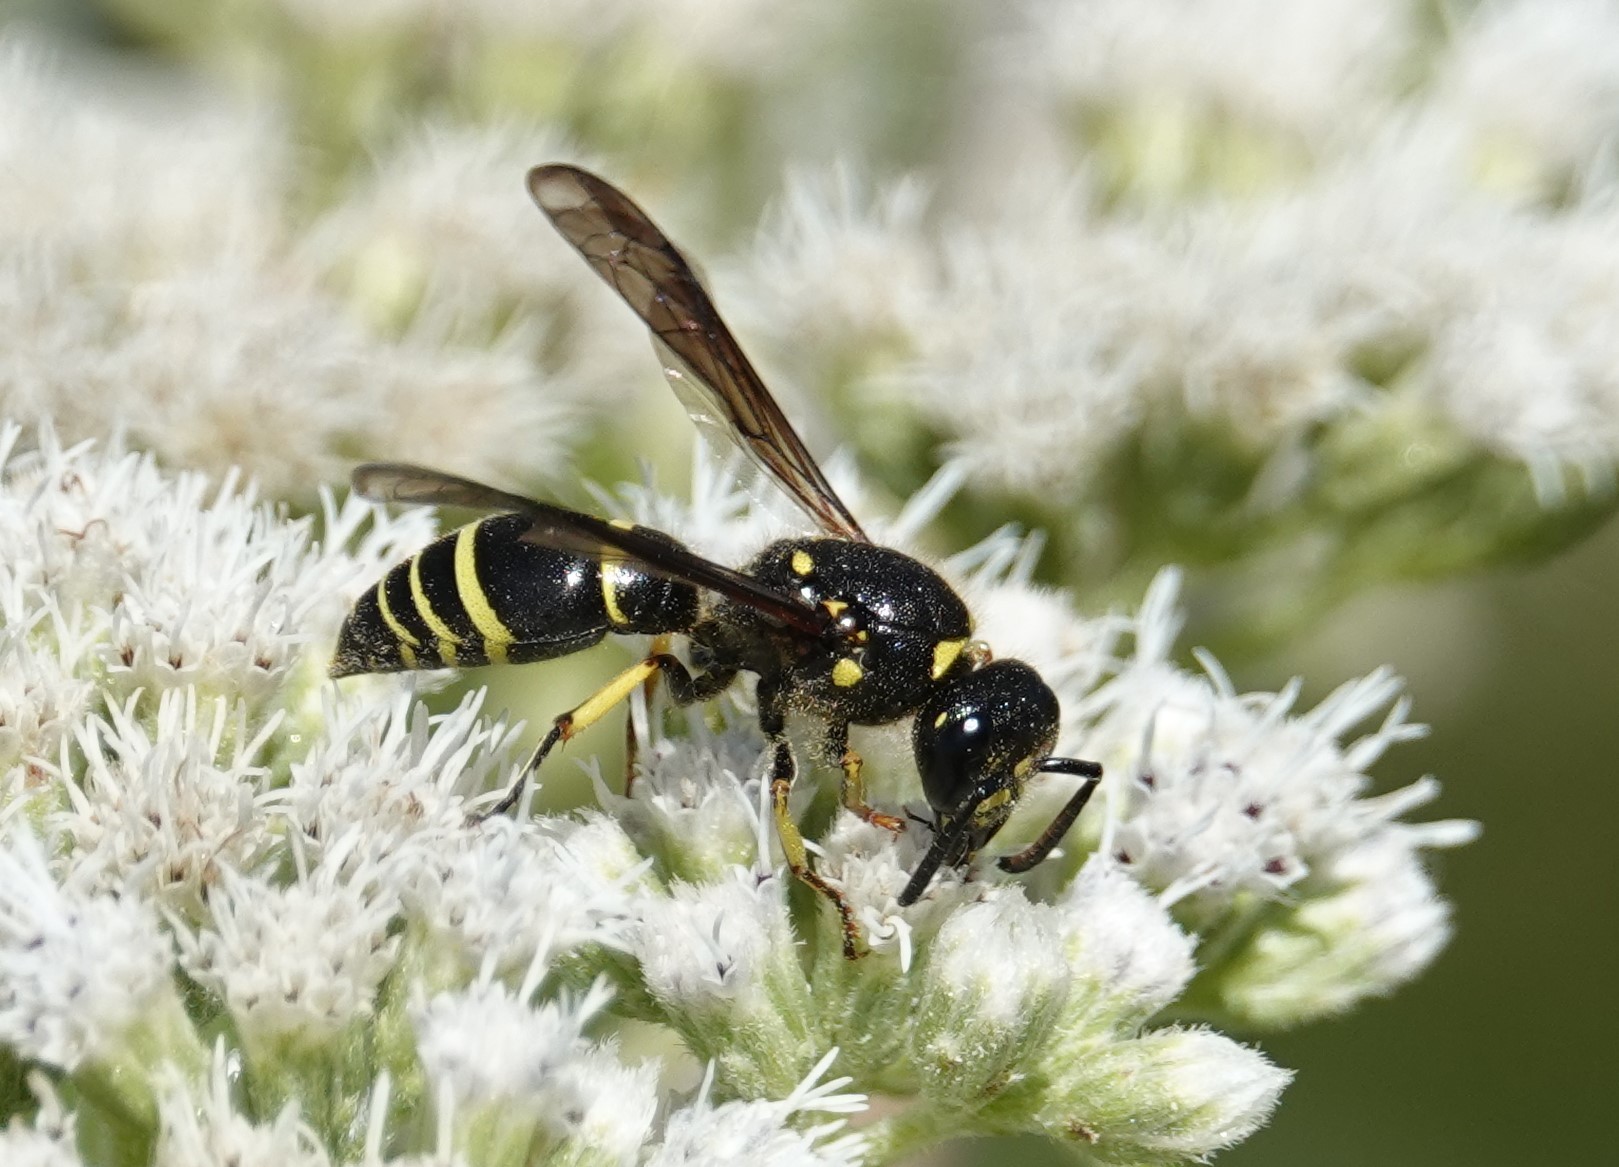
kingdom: Animalia
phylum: Arthropoda
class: Insecta
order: Hymenoptera
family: Vespidae
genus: Ancistrocerus
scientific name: Ancistrocerus
